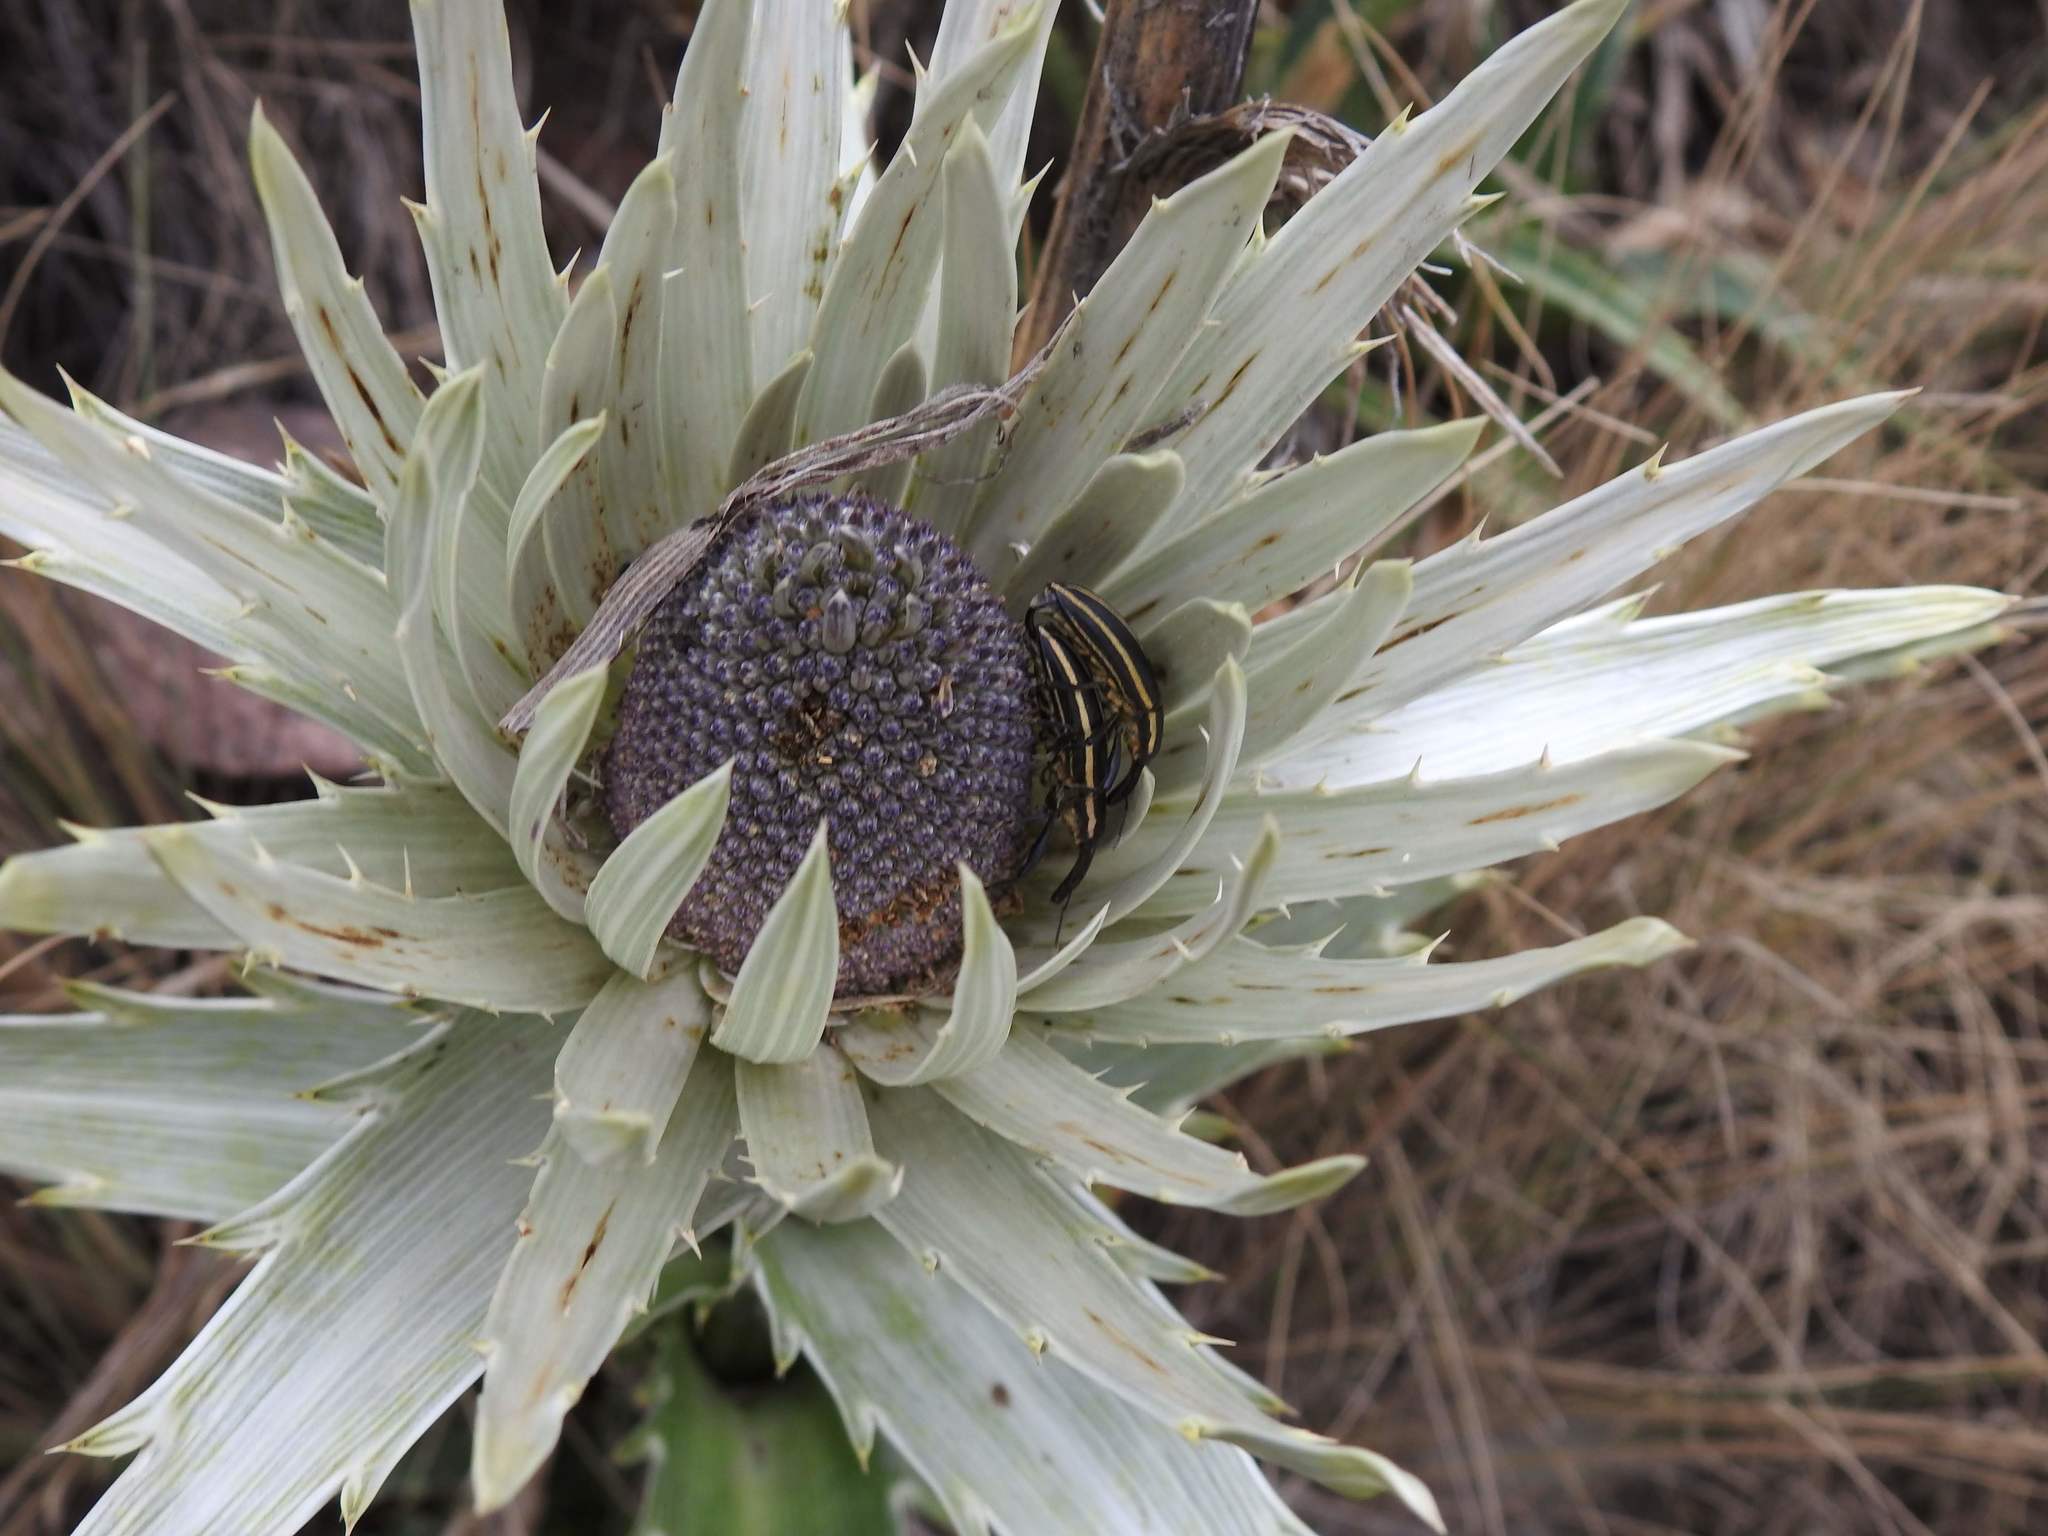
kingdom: Plantae
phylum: Tracheophyta
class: Magnoliopsida
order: Apiales
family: Apiaceae
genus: Eryngium
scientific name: Eryngium proteiflorum
